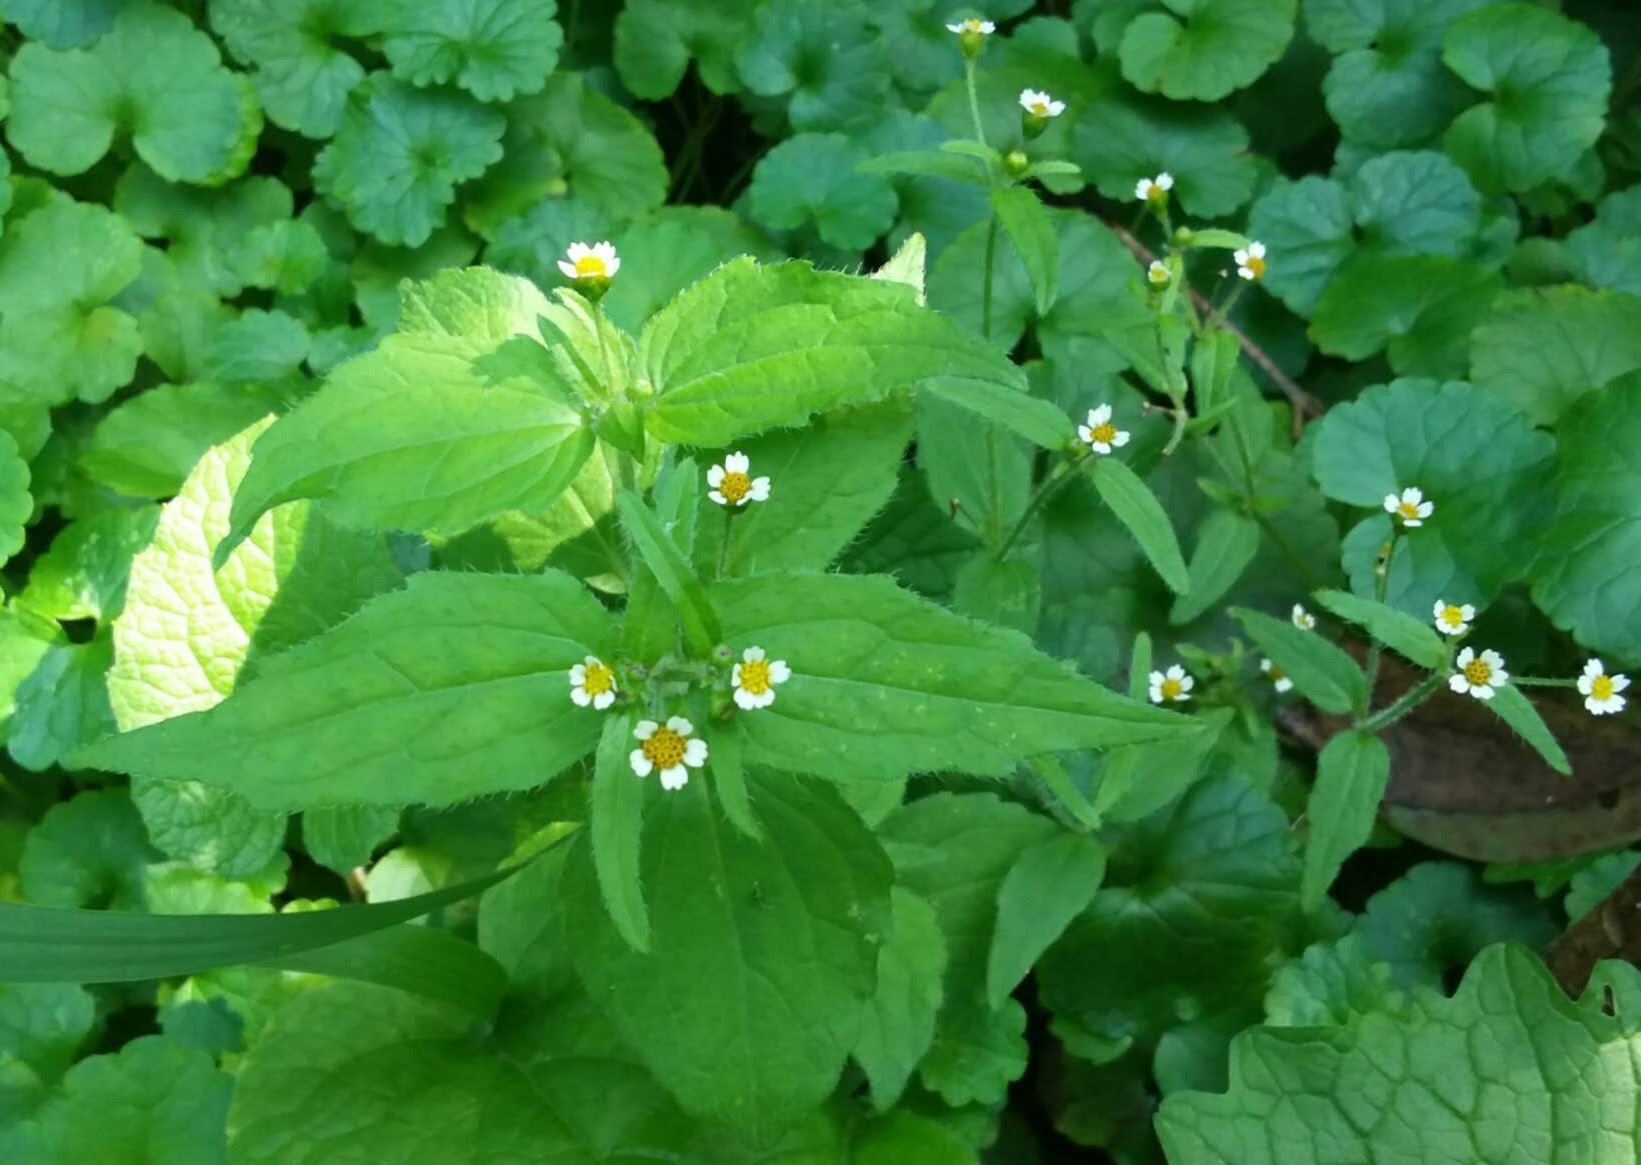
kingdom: Plantae
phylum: Tracheophyta
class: Magnoliopsida
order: Asterales
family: Asteraceae
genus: Galinsoga
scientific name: Galinsoga quadriradiata
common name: Shaggy soldier
